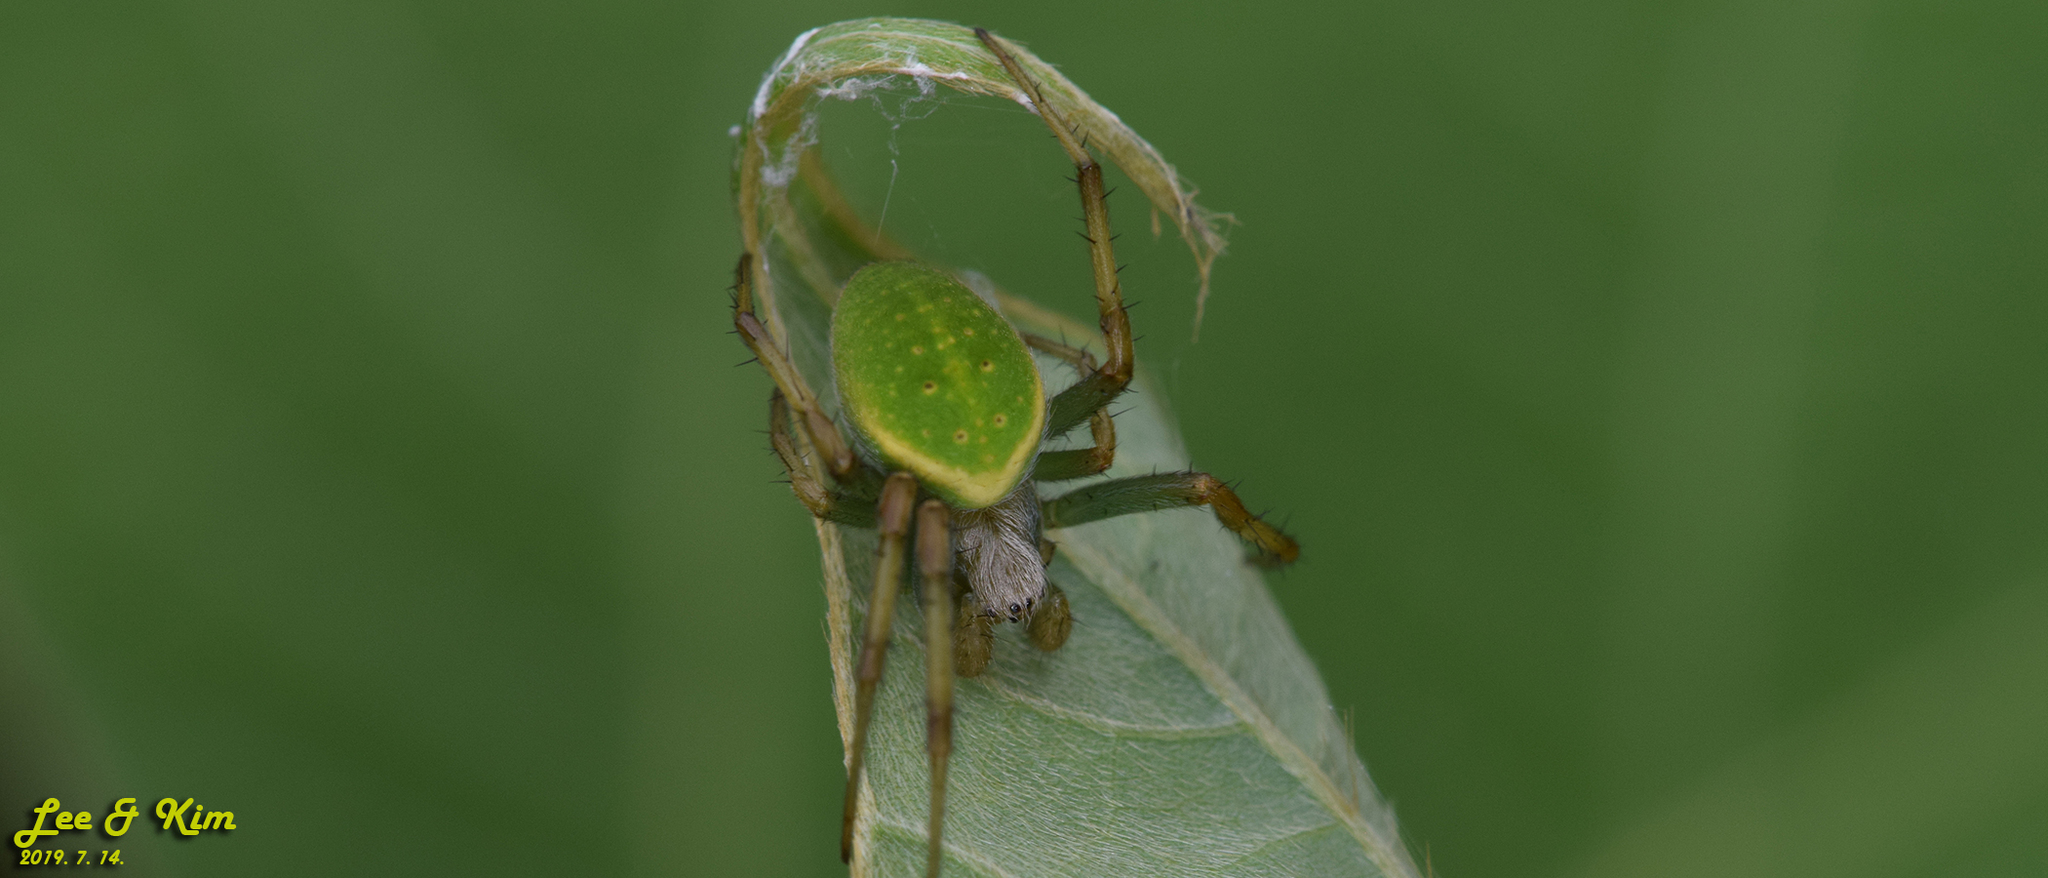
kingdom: Animalia
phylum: Arthropoda
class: Arachnida
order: Araneae
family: Araneidae
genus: Neoscona
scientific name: Neoscona scylloides
